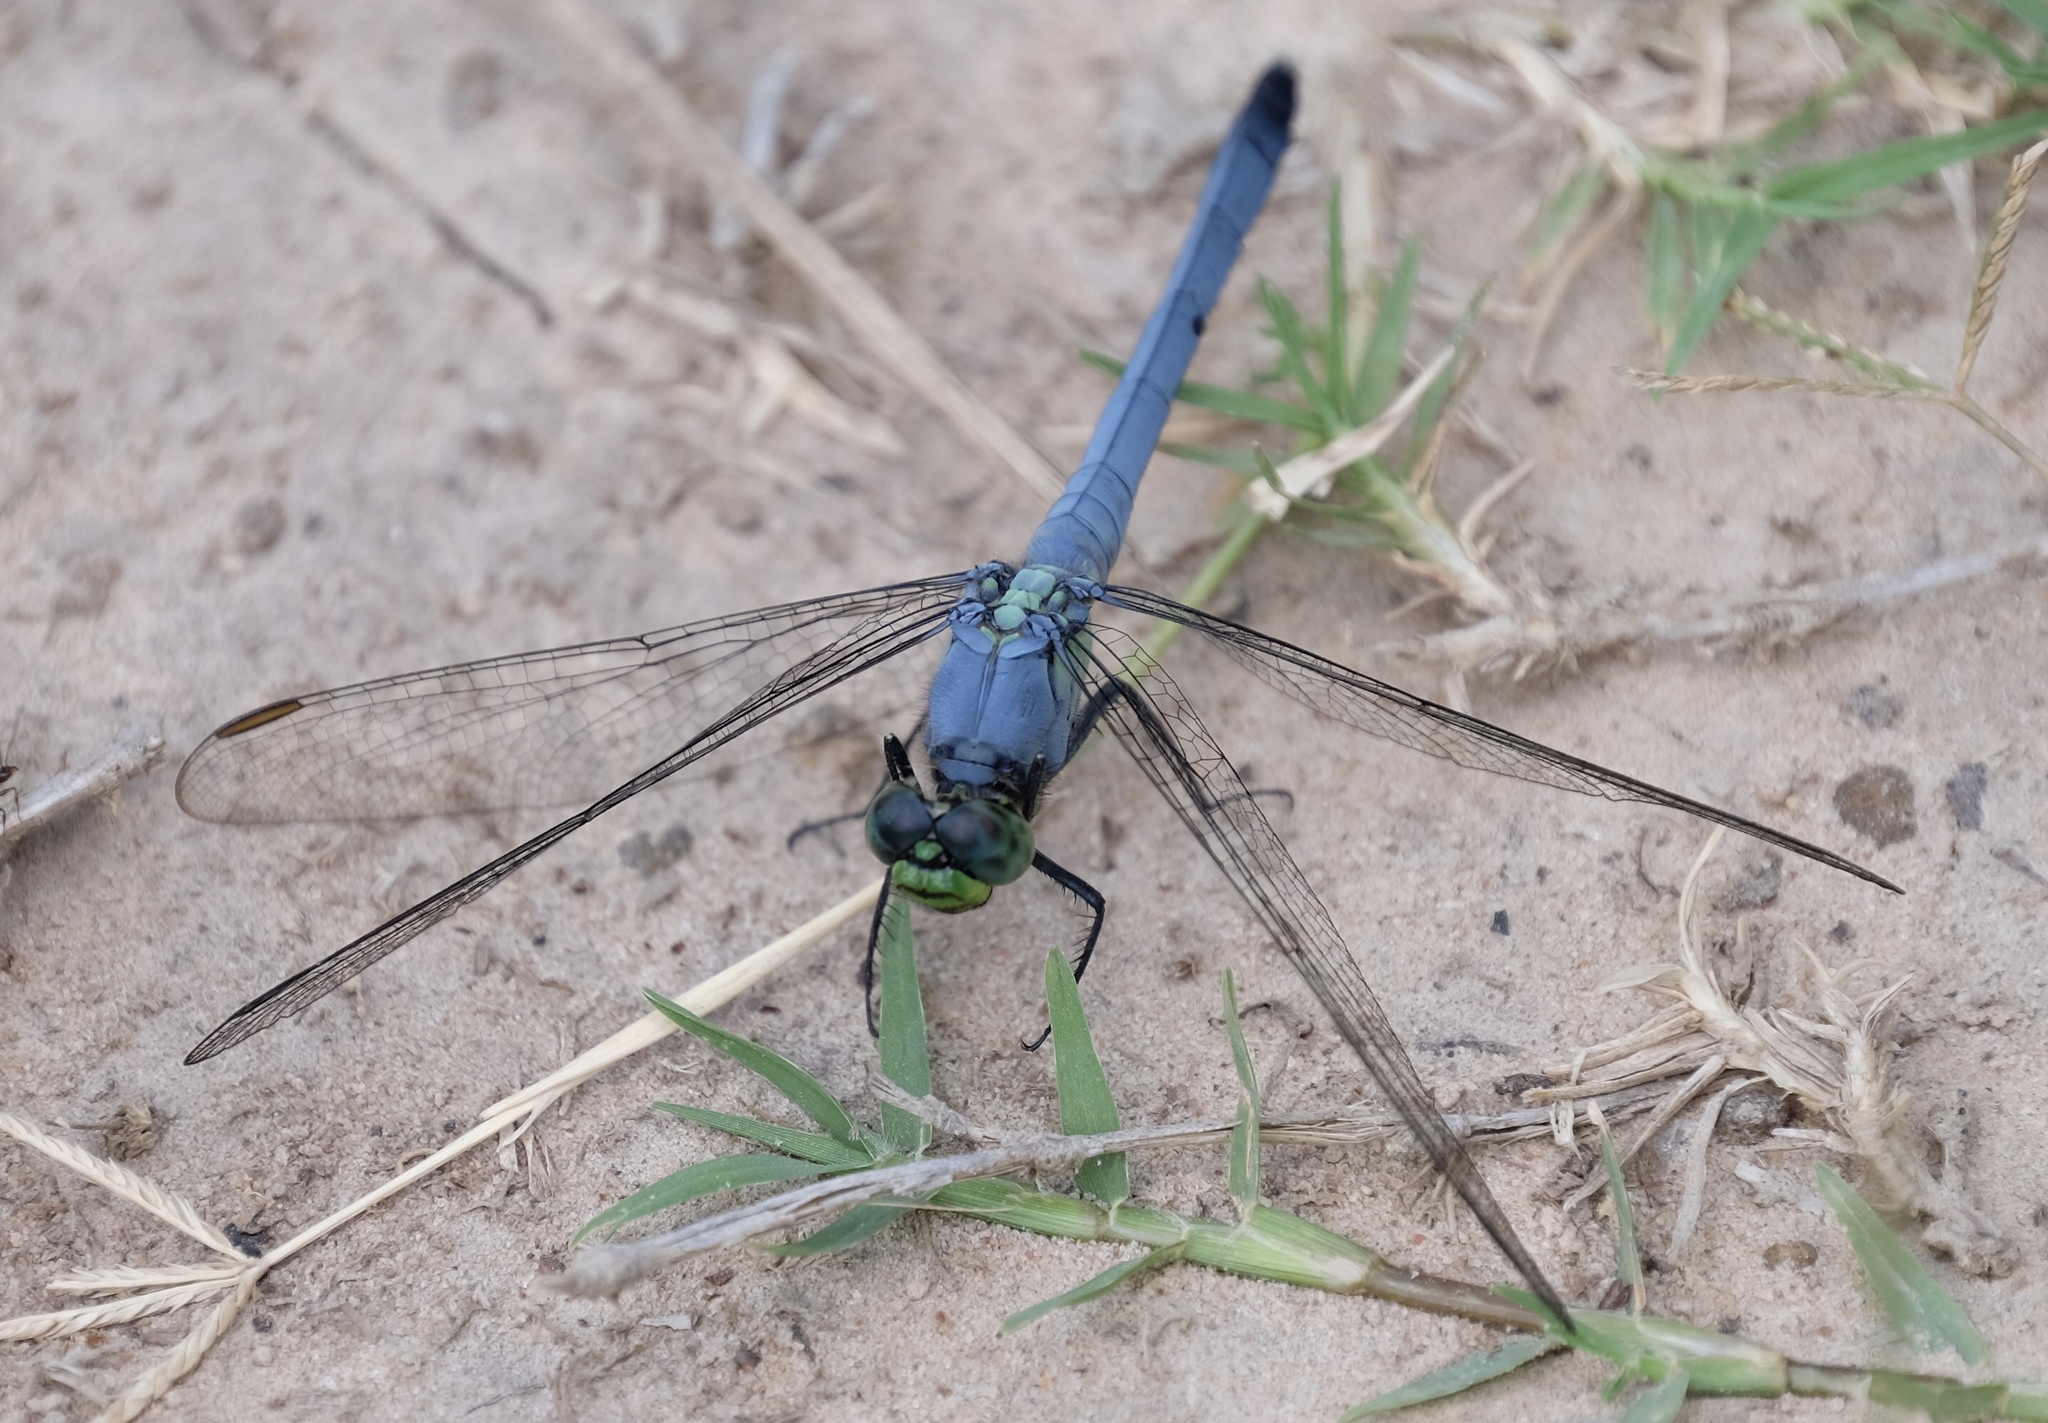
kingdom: Animalia
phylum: Arthropoda
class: Insecta
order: Odonata
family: Libellulidae
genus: Erythemis
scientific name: Erythemis simplicicollis
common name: Eastern pondhawk
